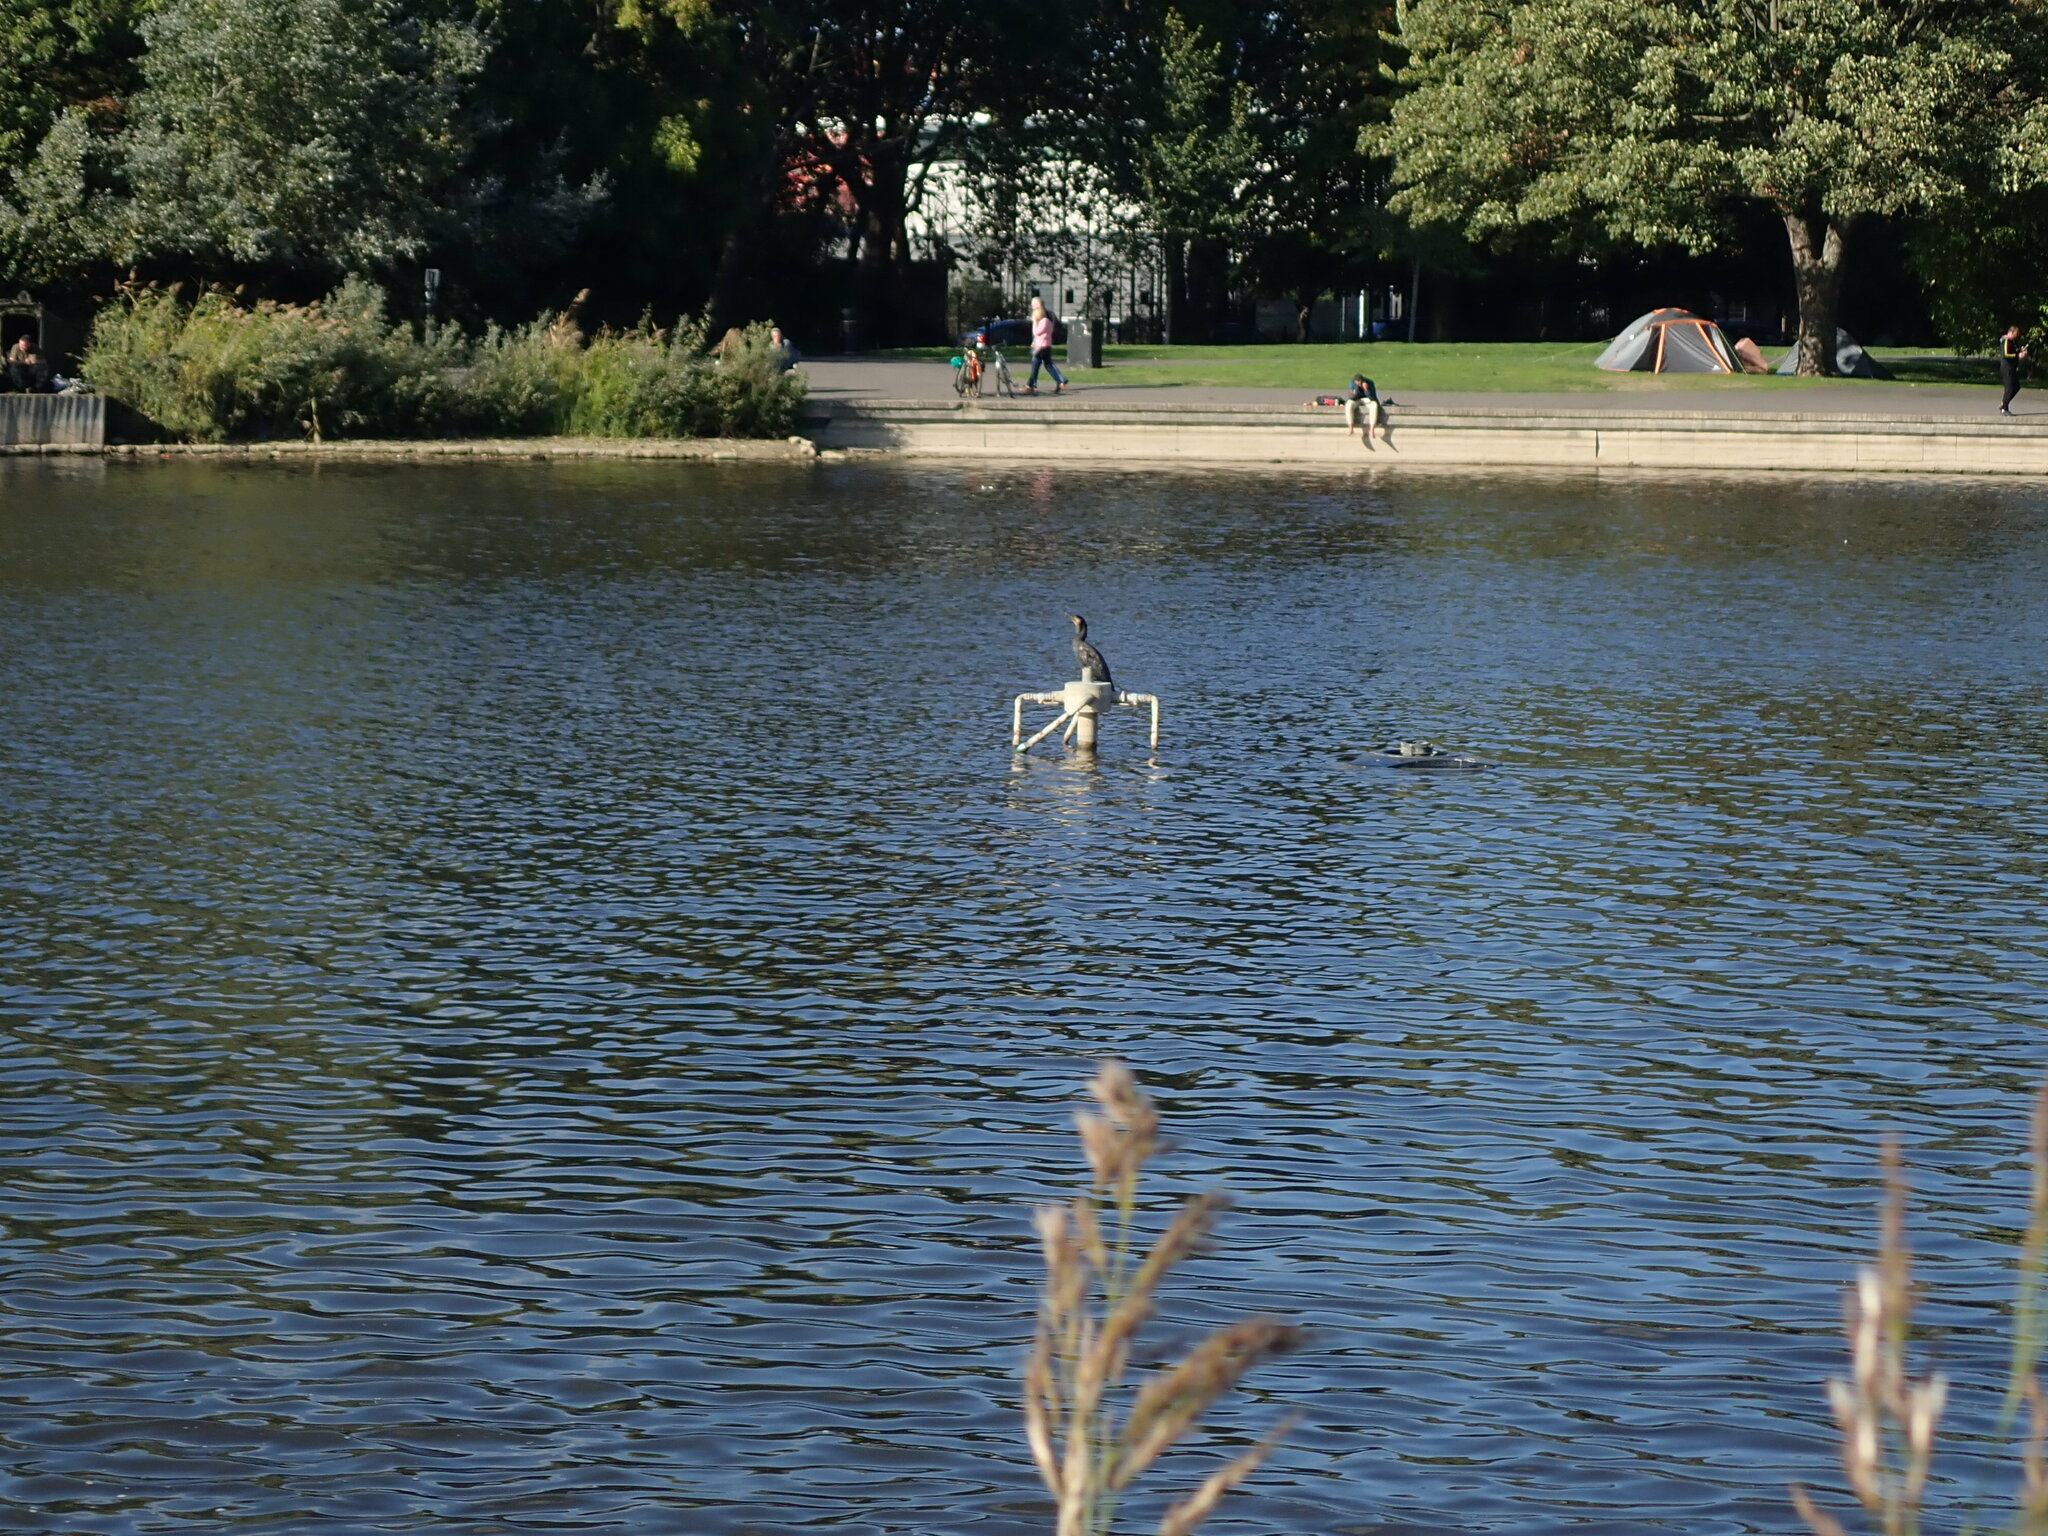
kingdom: Animalia
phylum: Chordata
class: Aves
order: Suliformes
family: Phalacrocoracidae
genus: Phalacrocorax
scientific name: Phalacrocorax carbo
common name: Great cormorant
